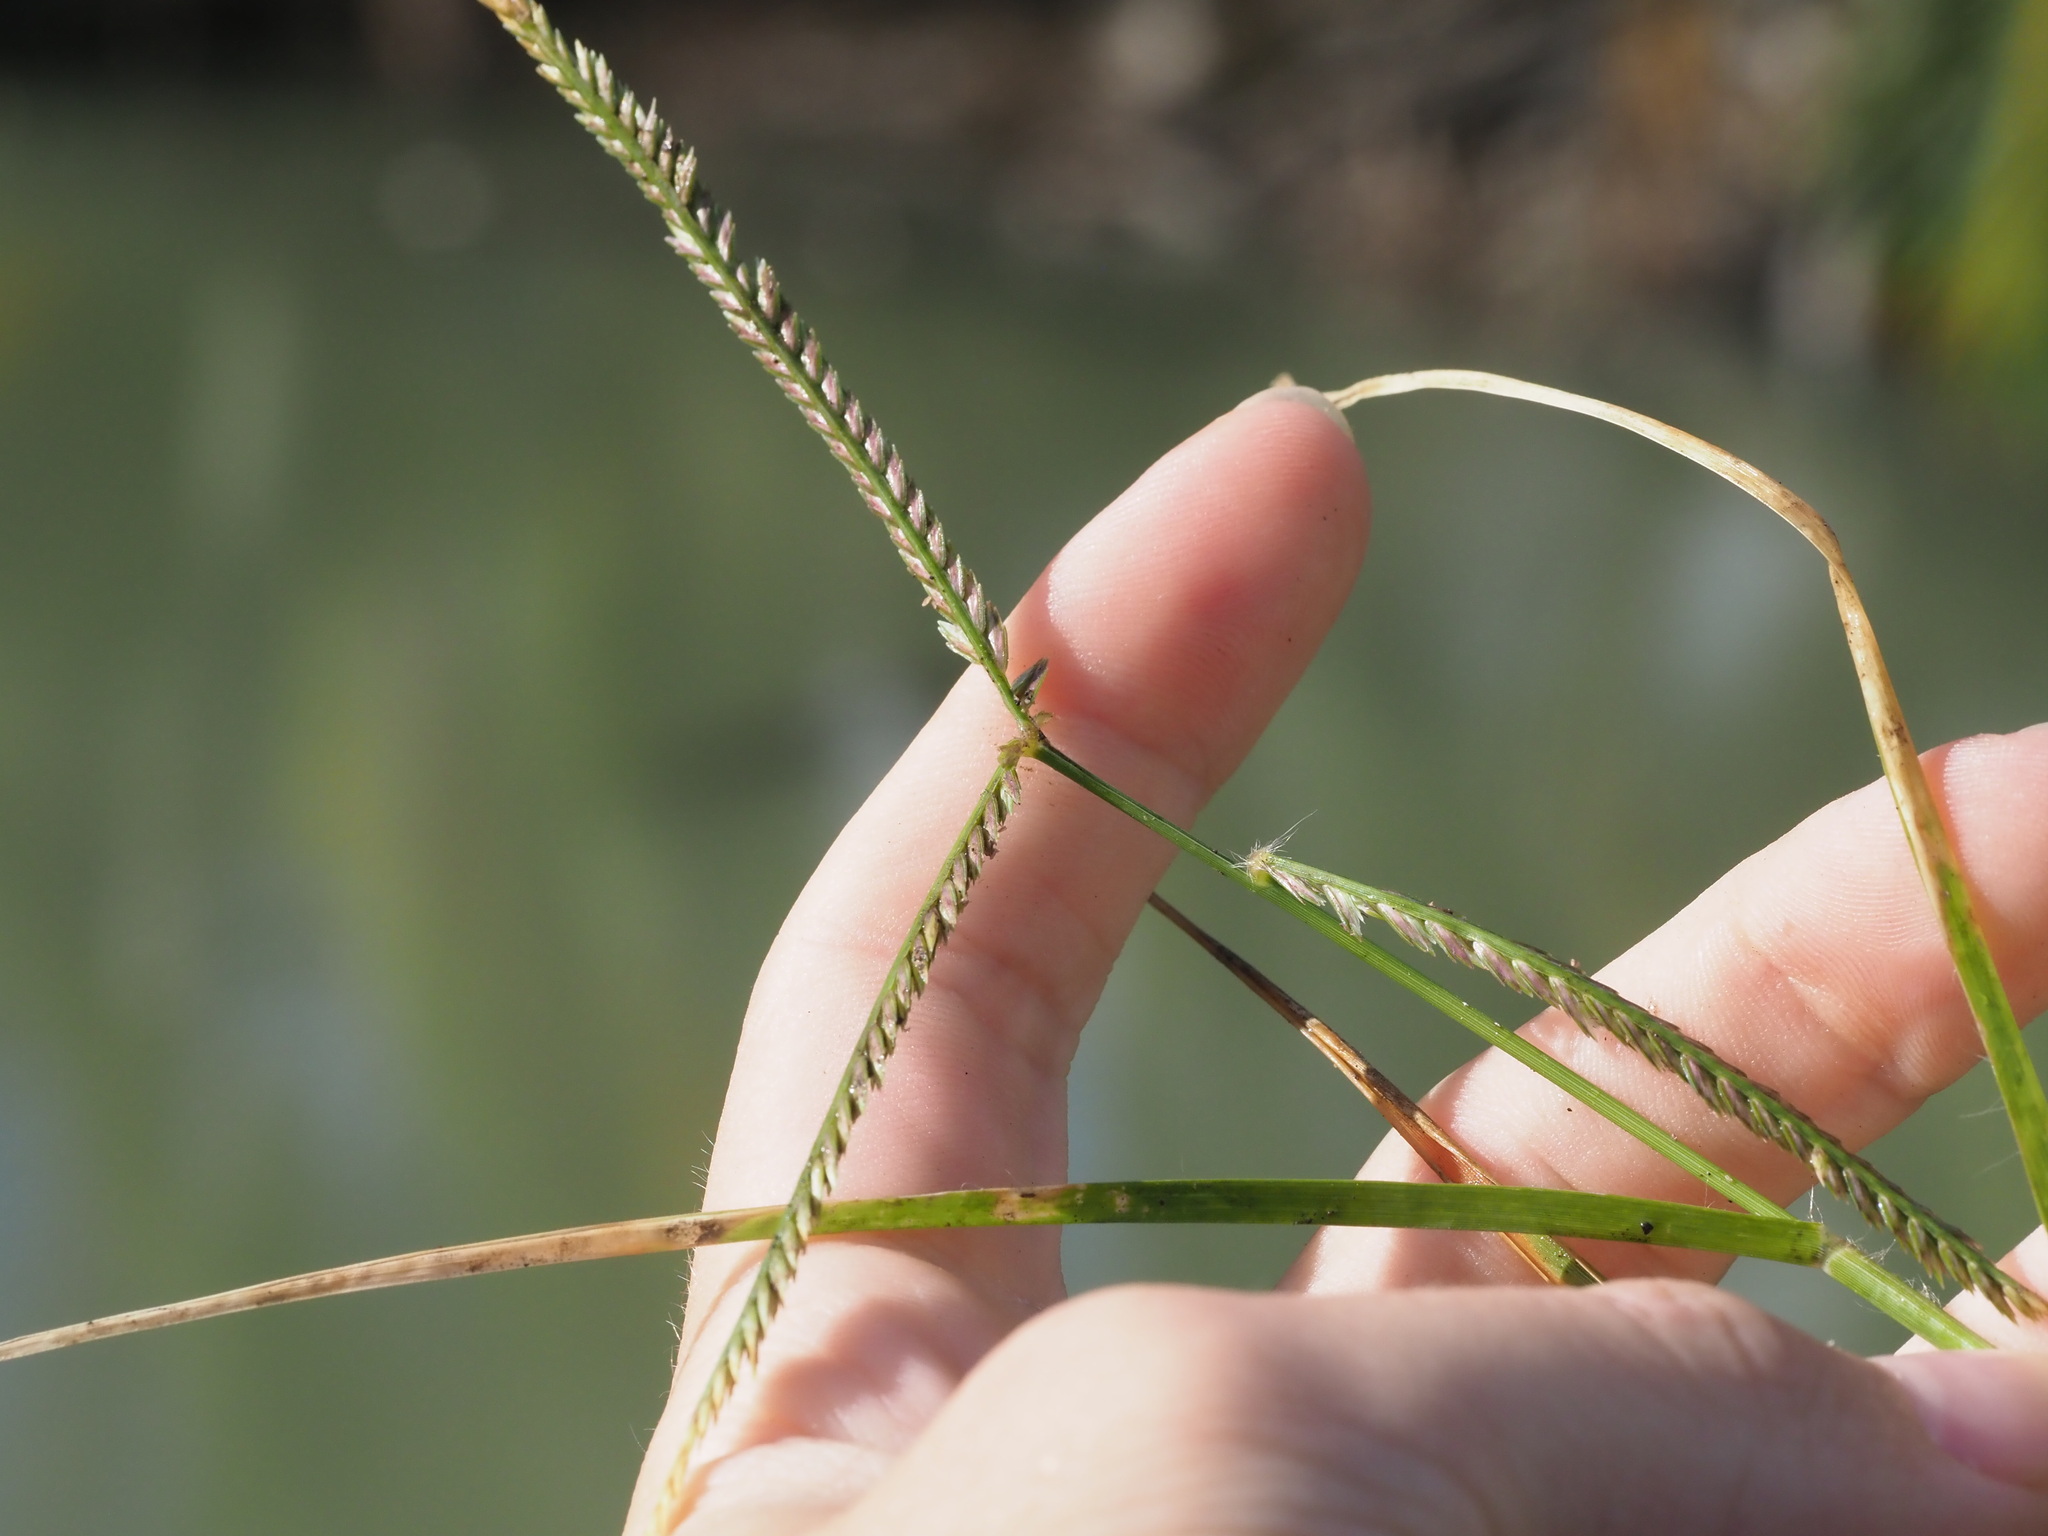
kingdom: Plantae
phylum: Tracheophyta
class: Liliopsida
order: Poales
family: Poaceae
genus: Eleusine
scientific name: Eleusine indica
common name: Yard-grass
